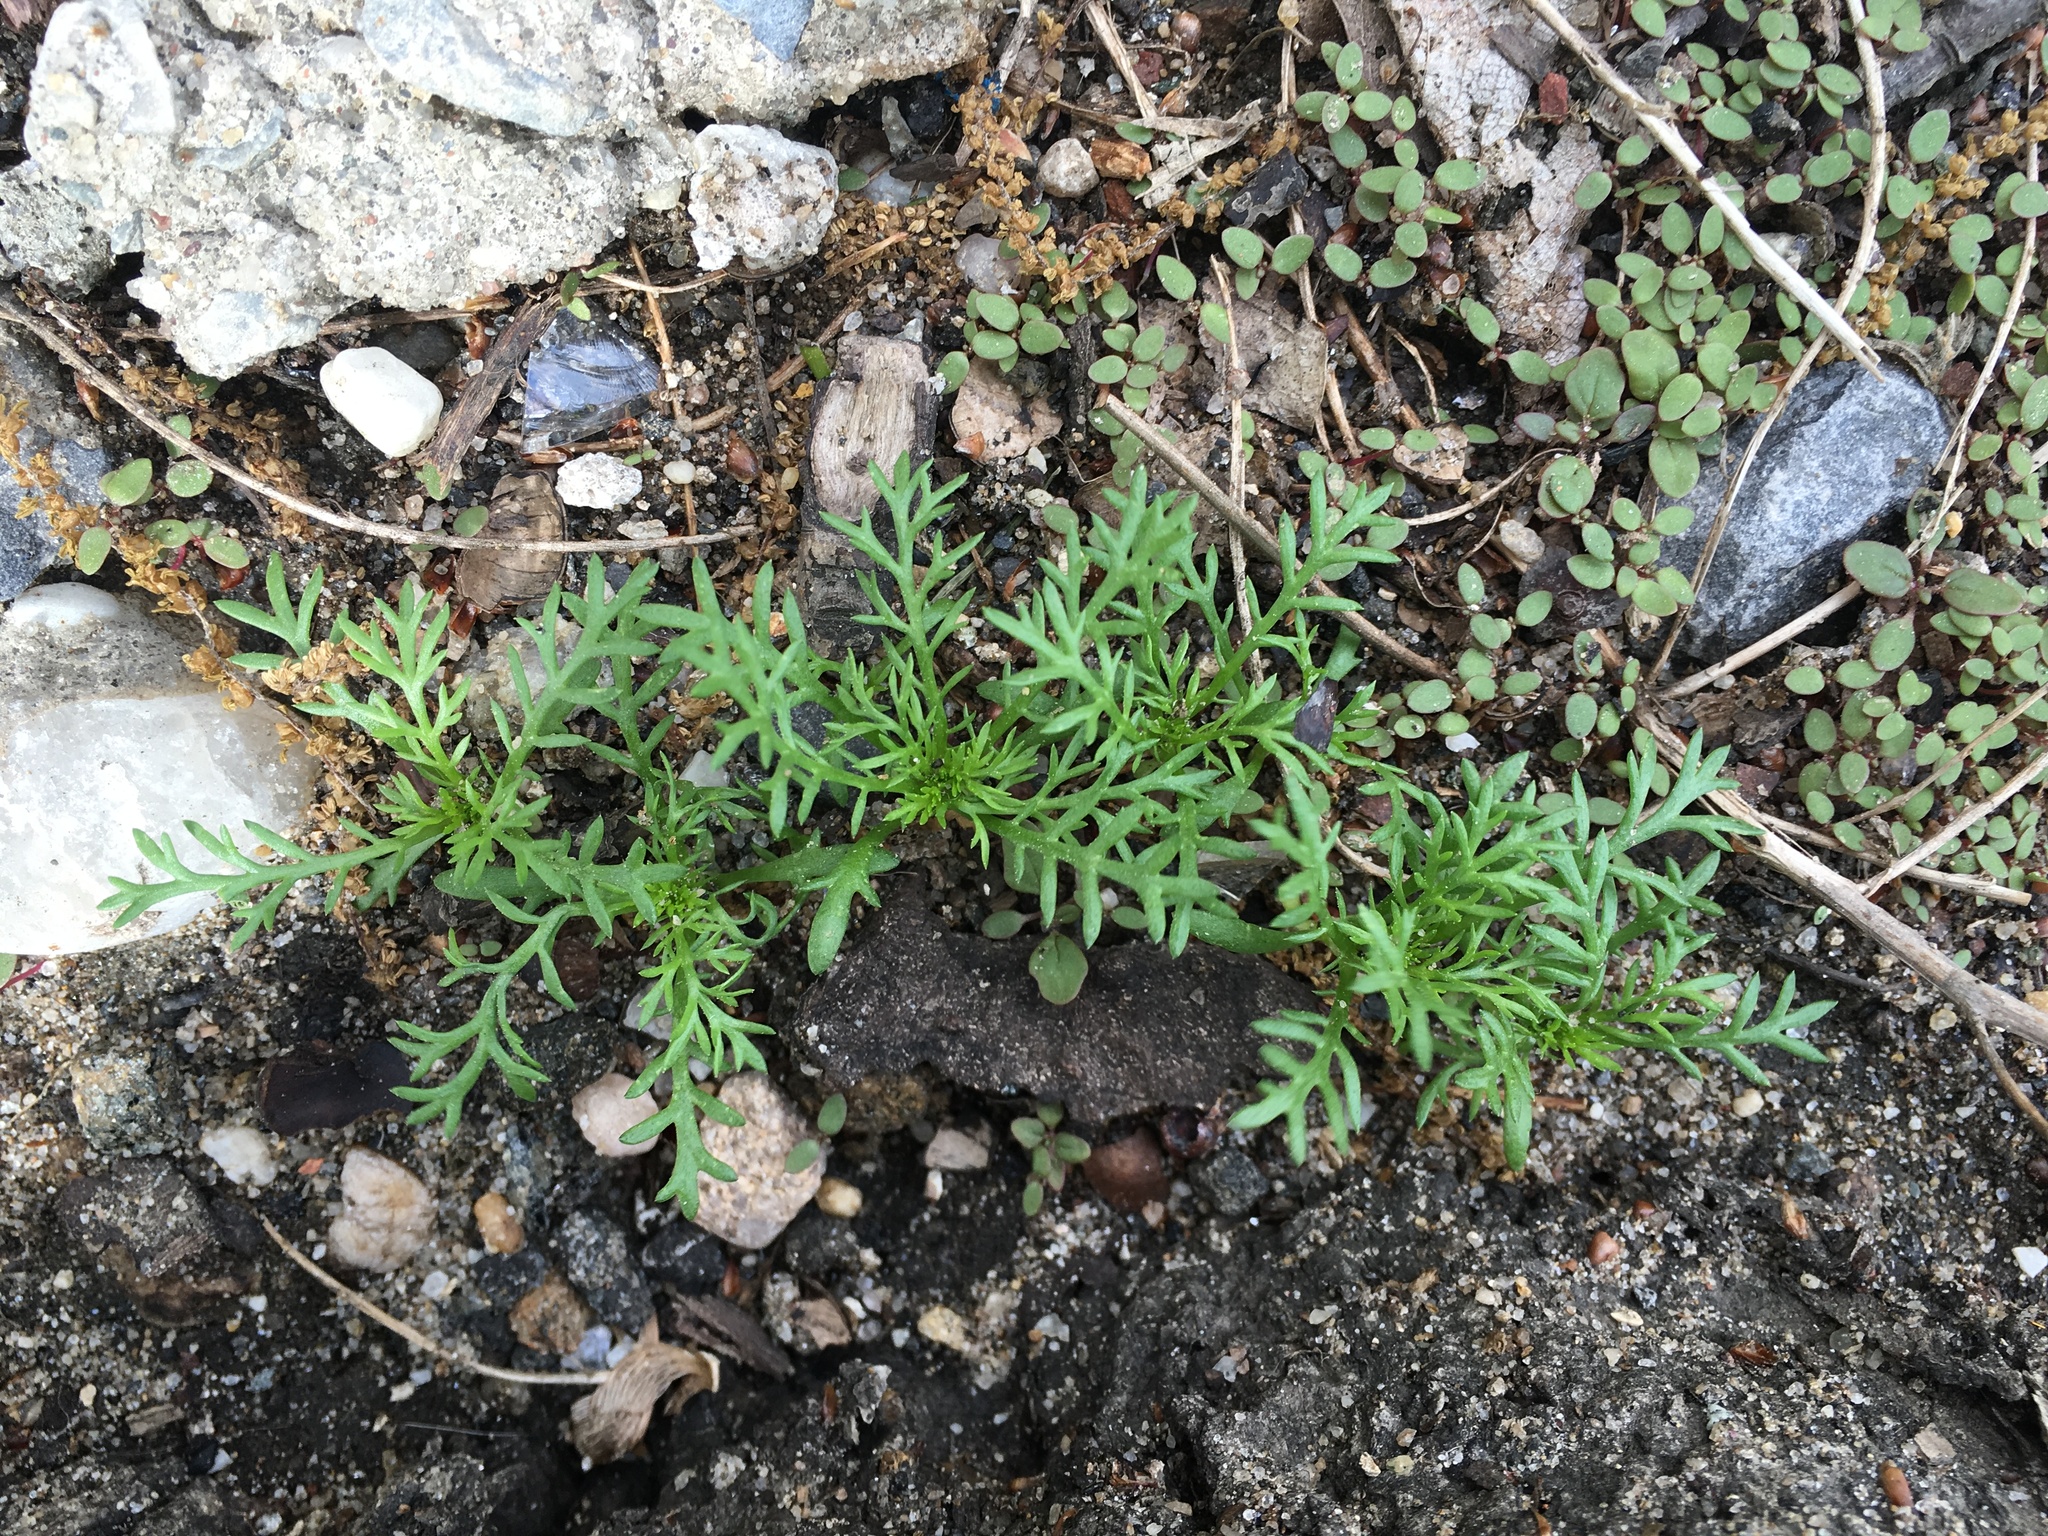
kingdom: Plantae
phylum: Tracheophyta
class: Magnoliopsida
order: Brassicales
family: Brassicaceae
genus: Lepidium
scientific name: Lepidium didymum
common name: Lesser swinecress
